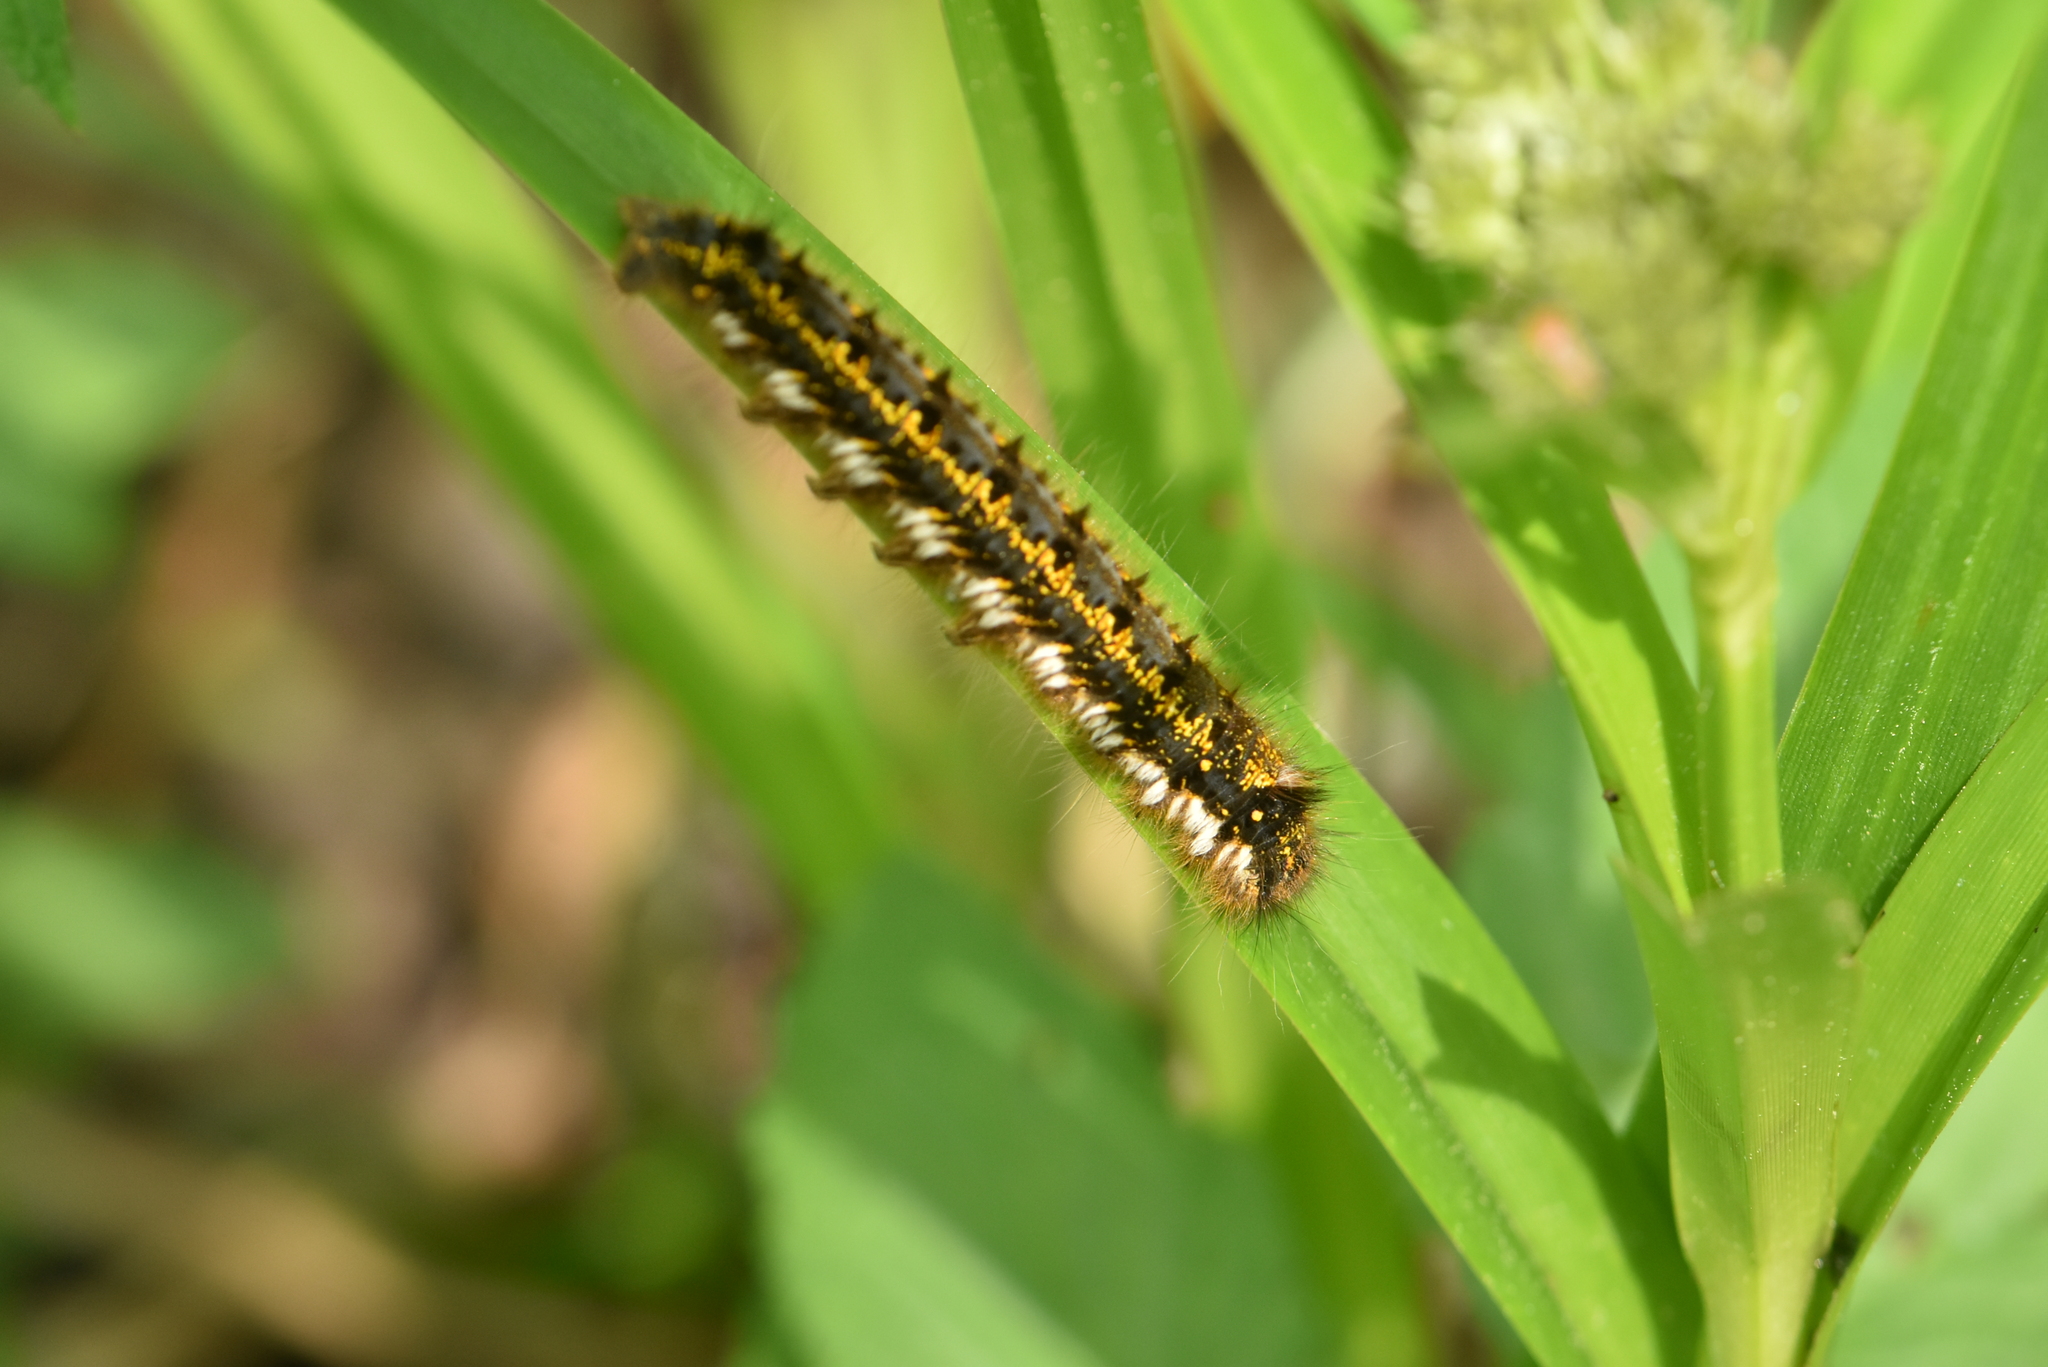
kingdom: Animalia
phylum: Arthropoda
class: Insecta
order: Lepidoptera
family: Lasiocampidae
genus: Euthrix
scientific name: Euthrix potatoria
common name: Drinker
